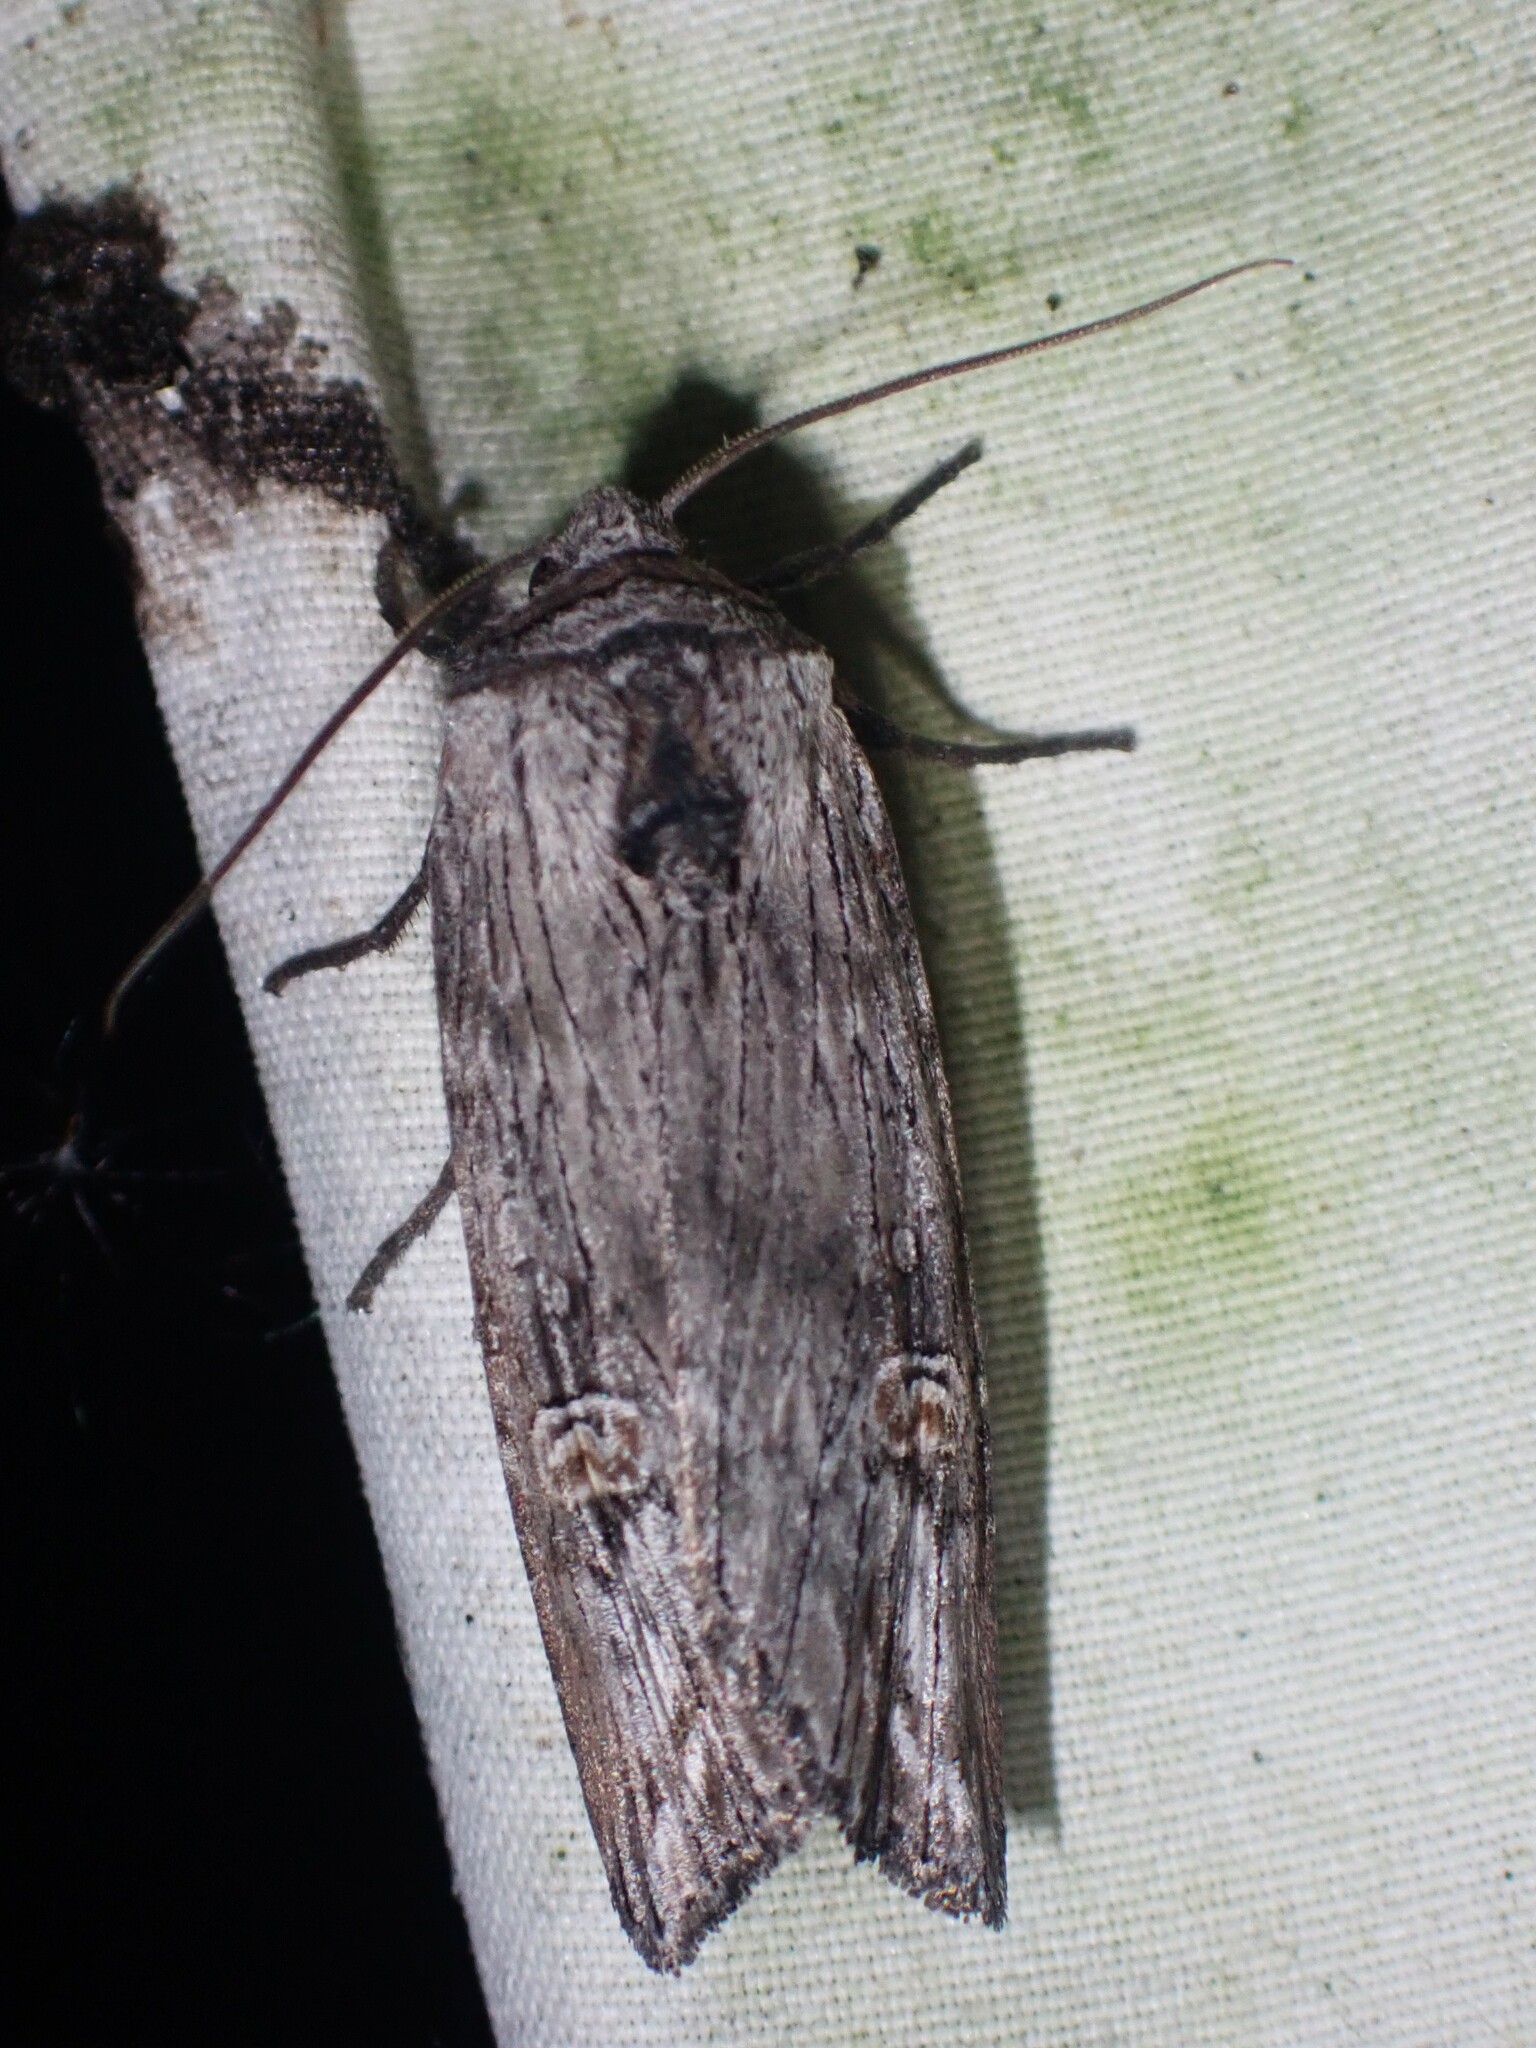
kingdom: Animalia
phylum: Arthropoda
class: Insecta
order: Lepidoptera
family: Noctuidae
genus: Xylena
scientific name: Xylena germana
